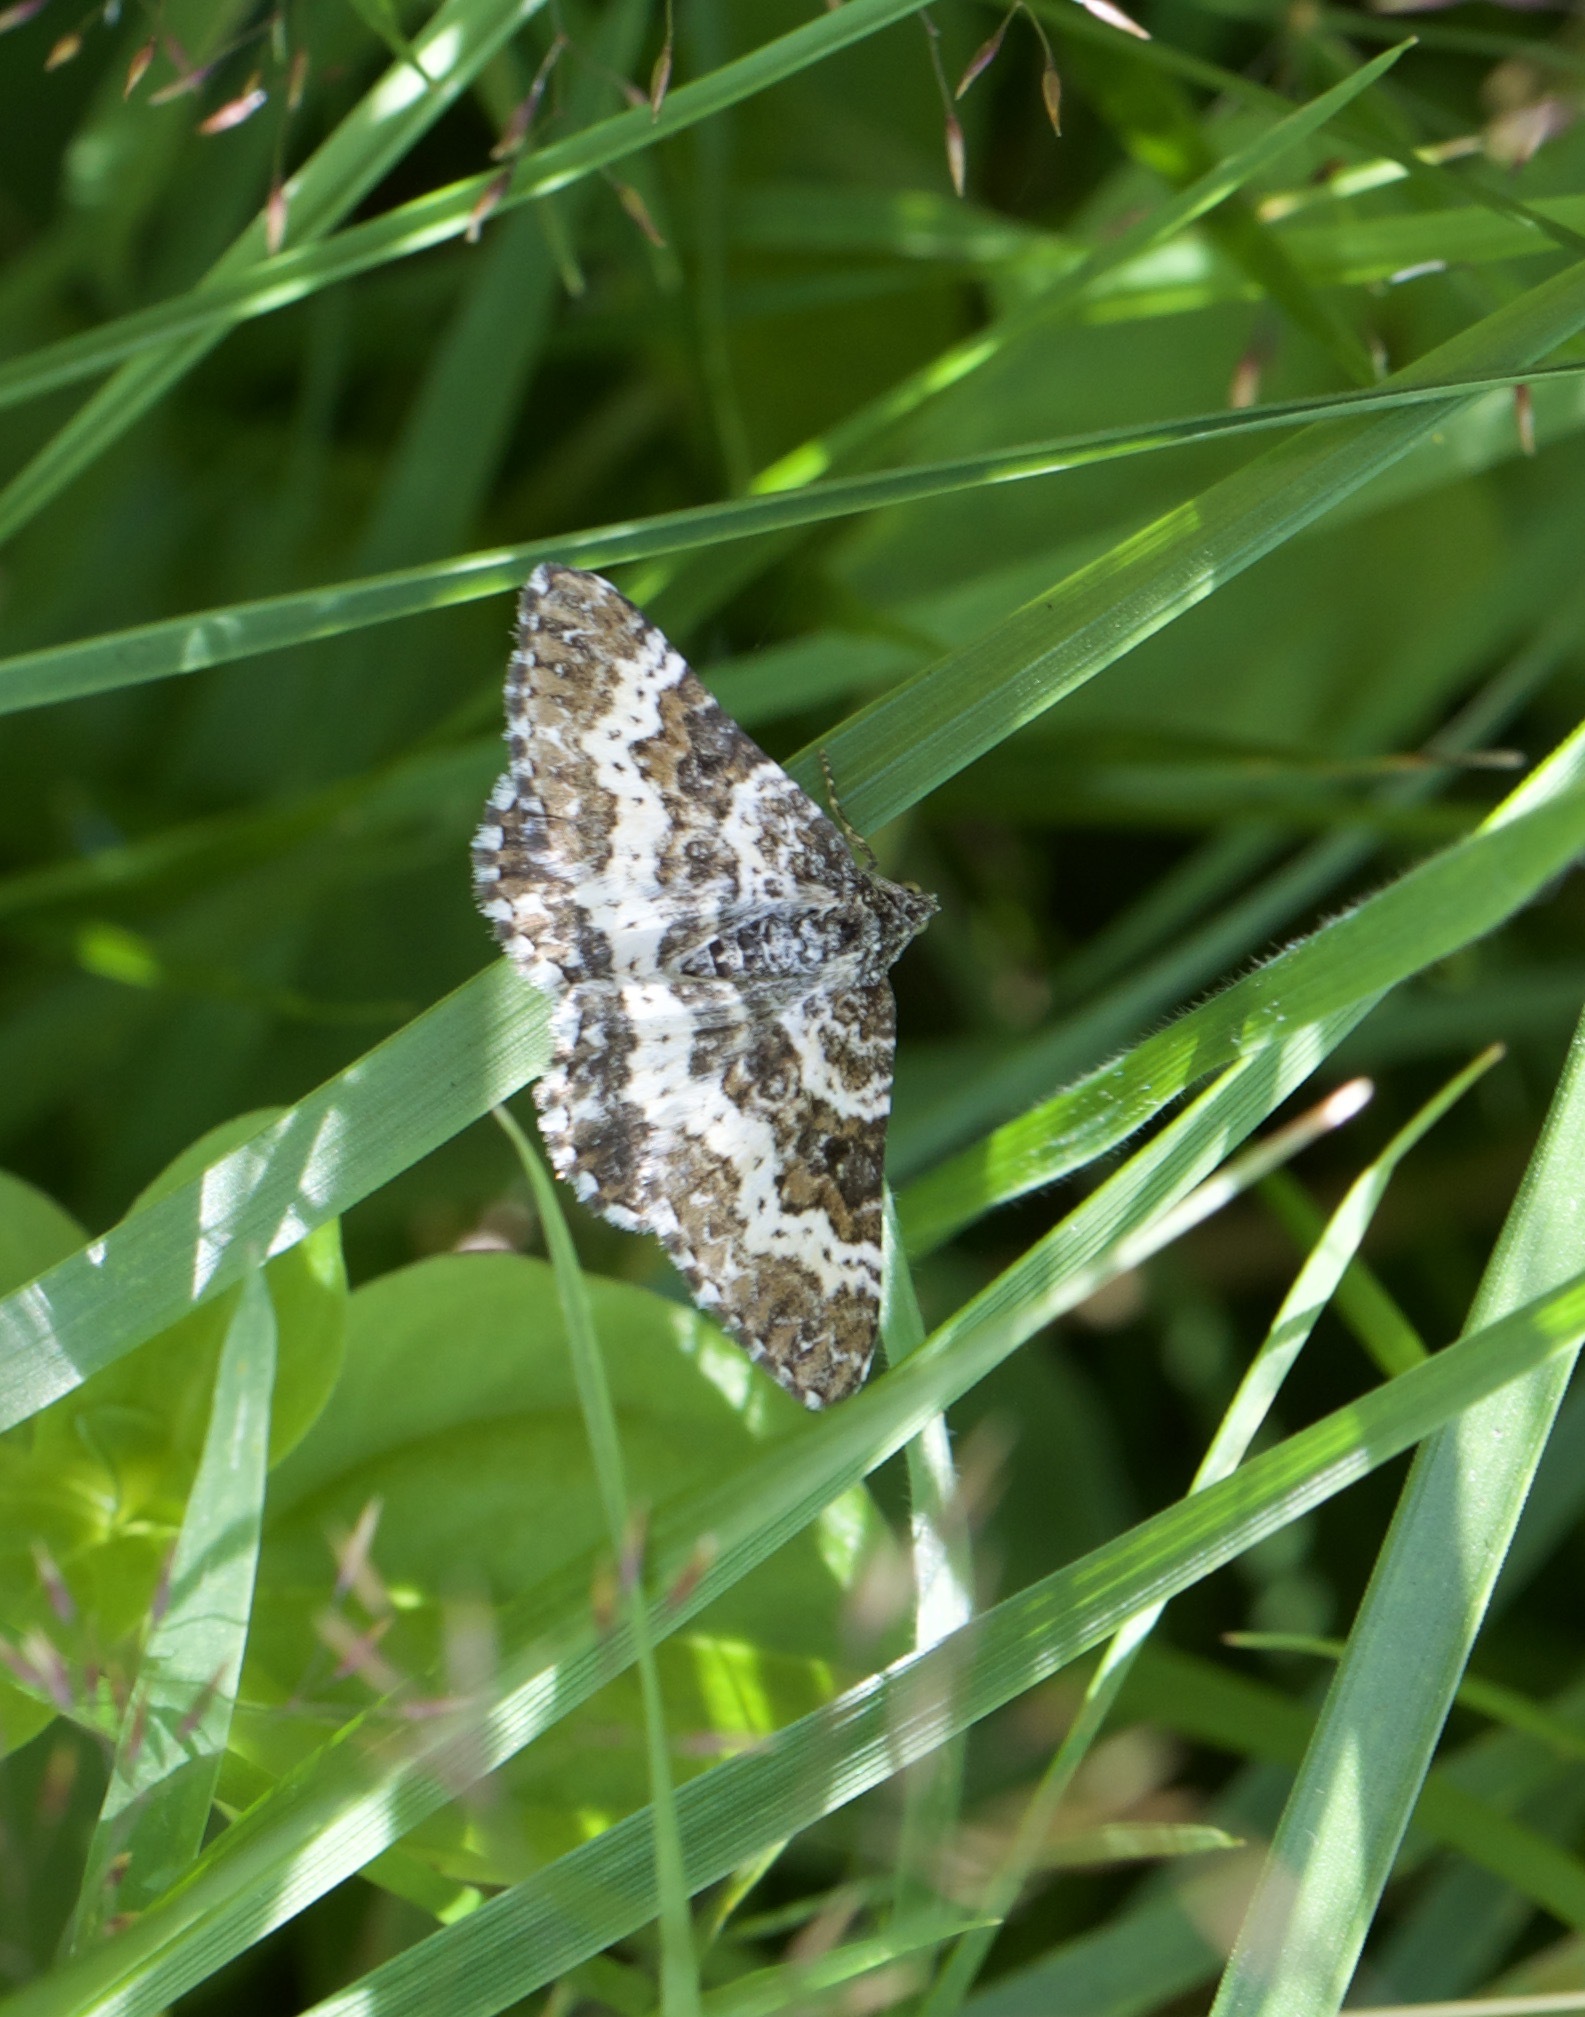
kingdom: Animalia
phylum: Arthropoda
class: Insecta
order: Lepidoptera
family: Geometridae
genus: Epirrhoe
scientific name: Epirrhoe tristata
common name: Small argent & sable
